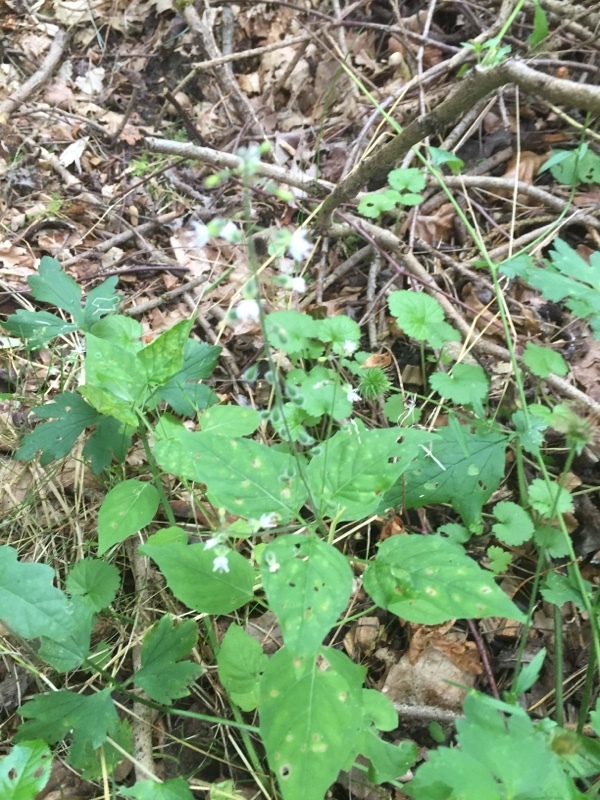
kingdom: Plantae
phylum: Tracheophyta
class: Magnoliopsida
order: Myrtales
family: Onagraceae
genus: Circaea
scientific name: Circaea lutetiana
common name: Enchanter's-nightshade
